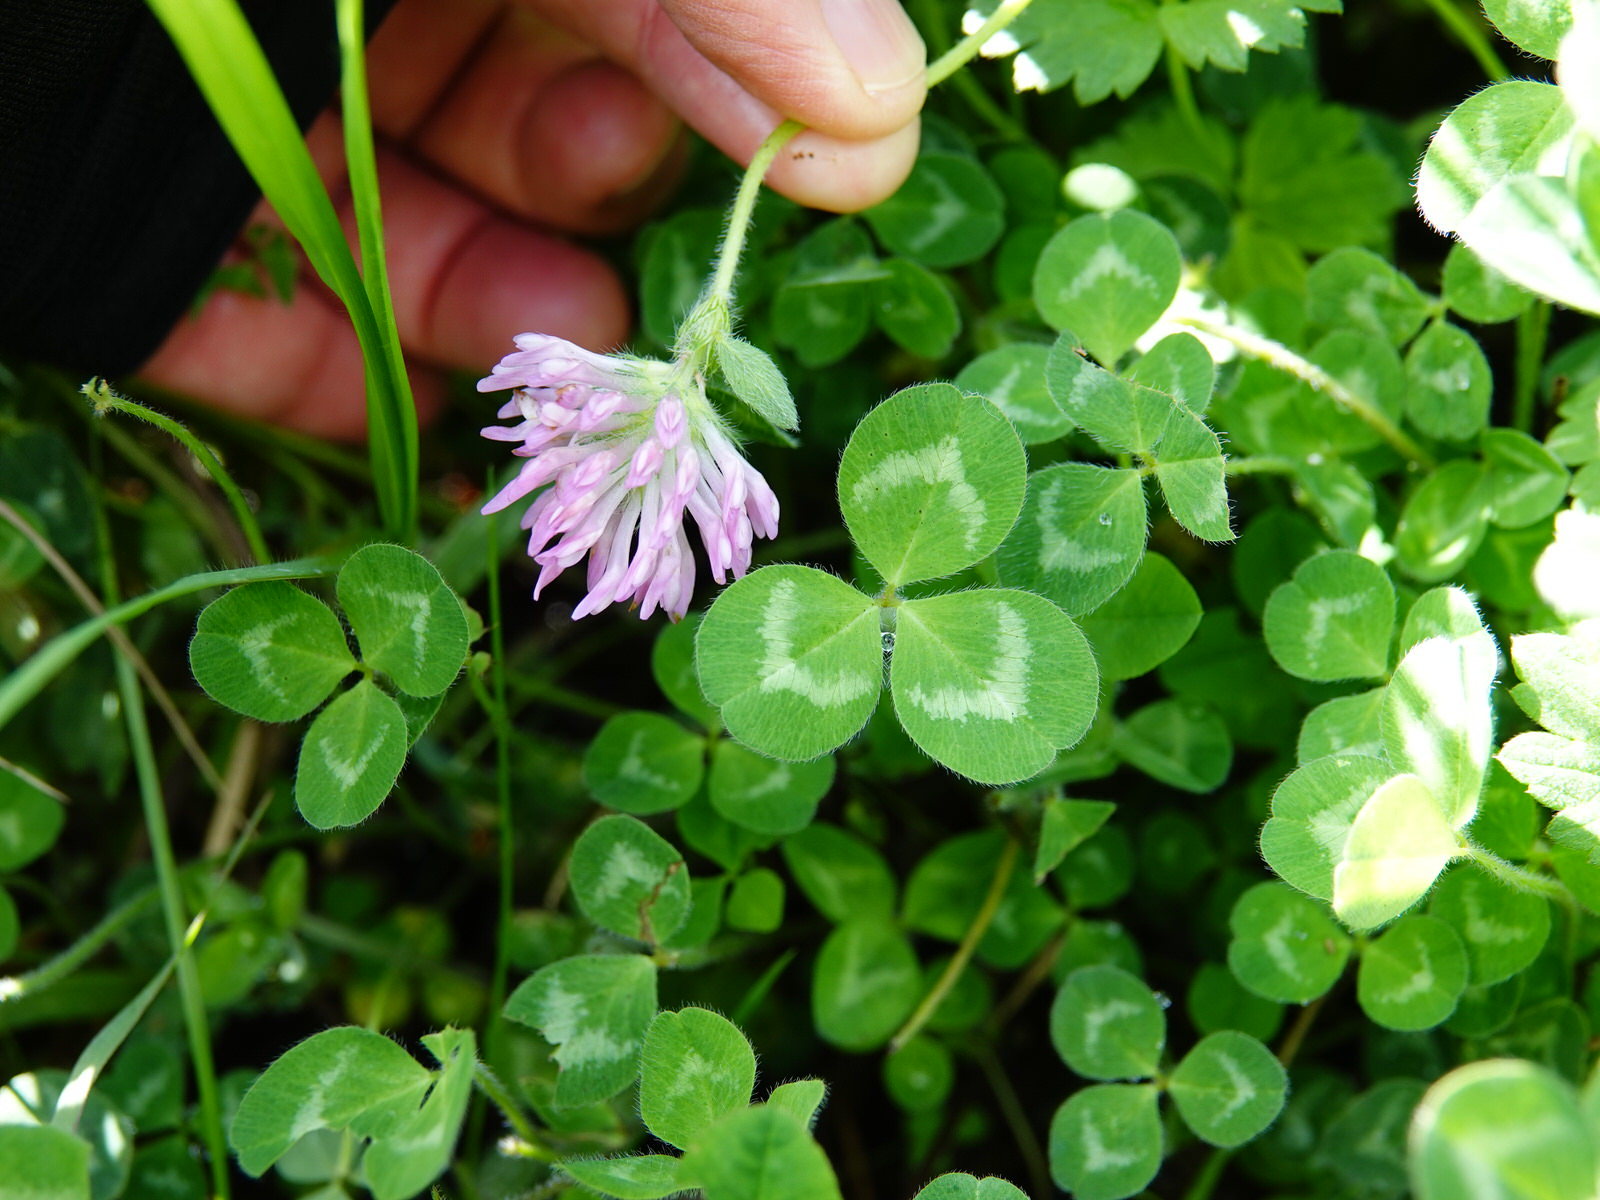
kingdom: Plantae
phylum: Tracheophyta
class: Magnoliopsida
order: Fabales
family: Fabaceae
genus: Trifolium
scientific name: Trifolium pratense
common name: Red clover
